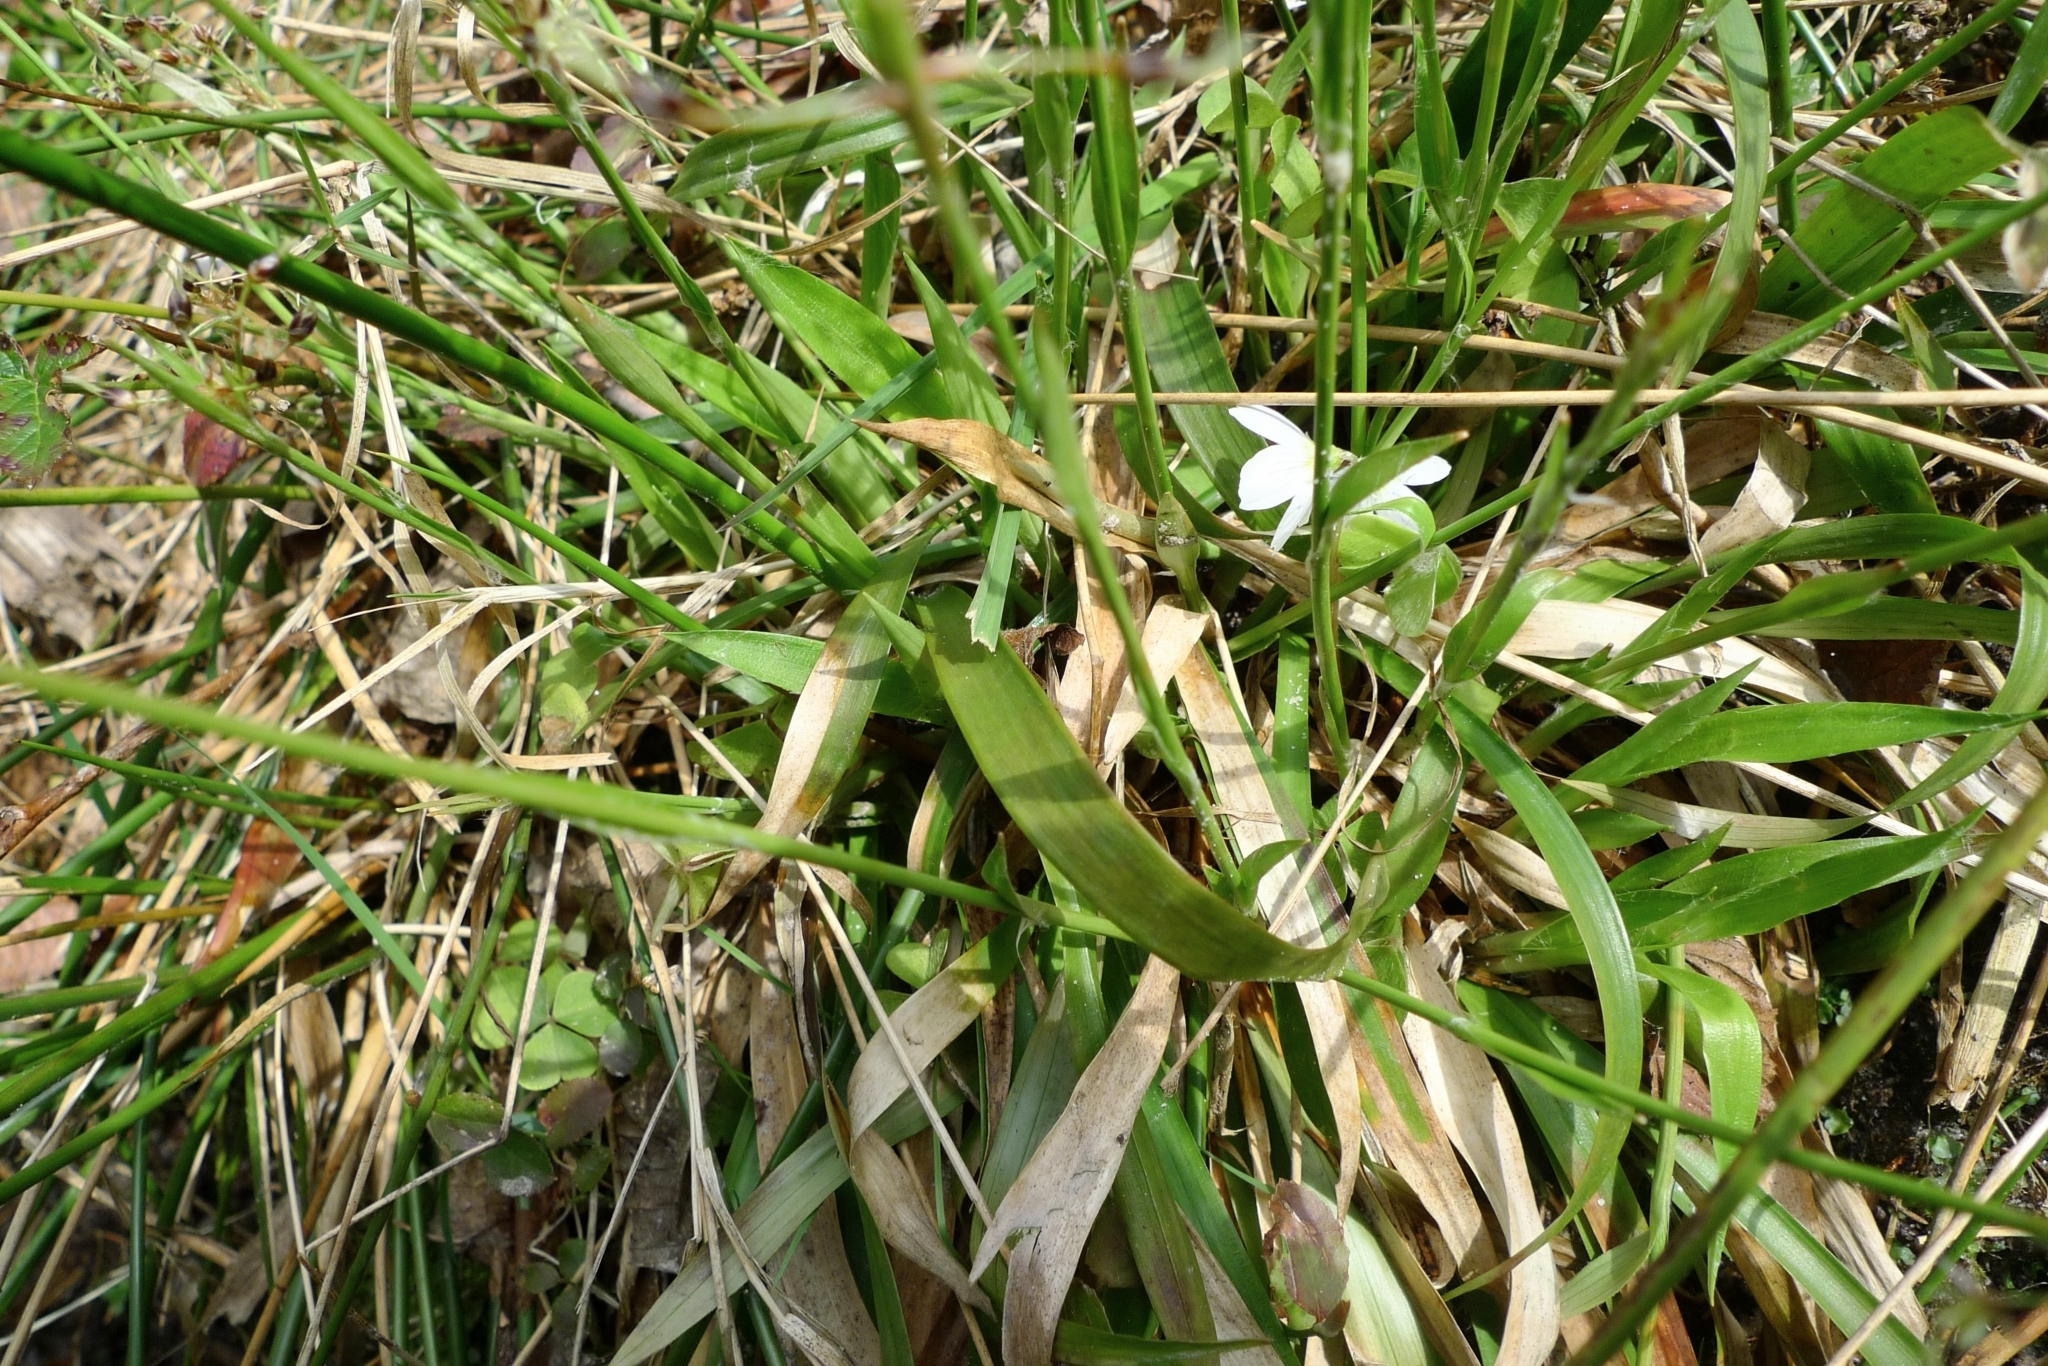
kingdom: Plantae
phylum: Tracheophyta
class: Liliopsida
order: Poales
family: Juncaceae
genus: Luzula
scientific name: Luzula pilosa
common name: Hairy wood-rush
